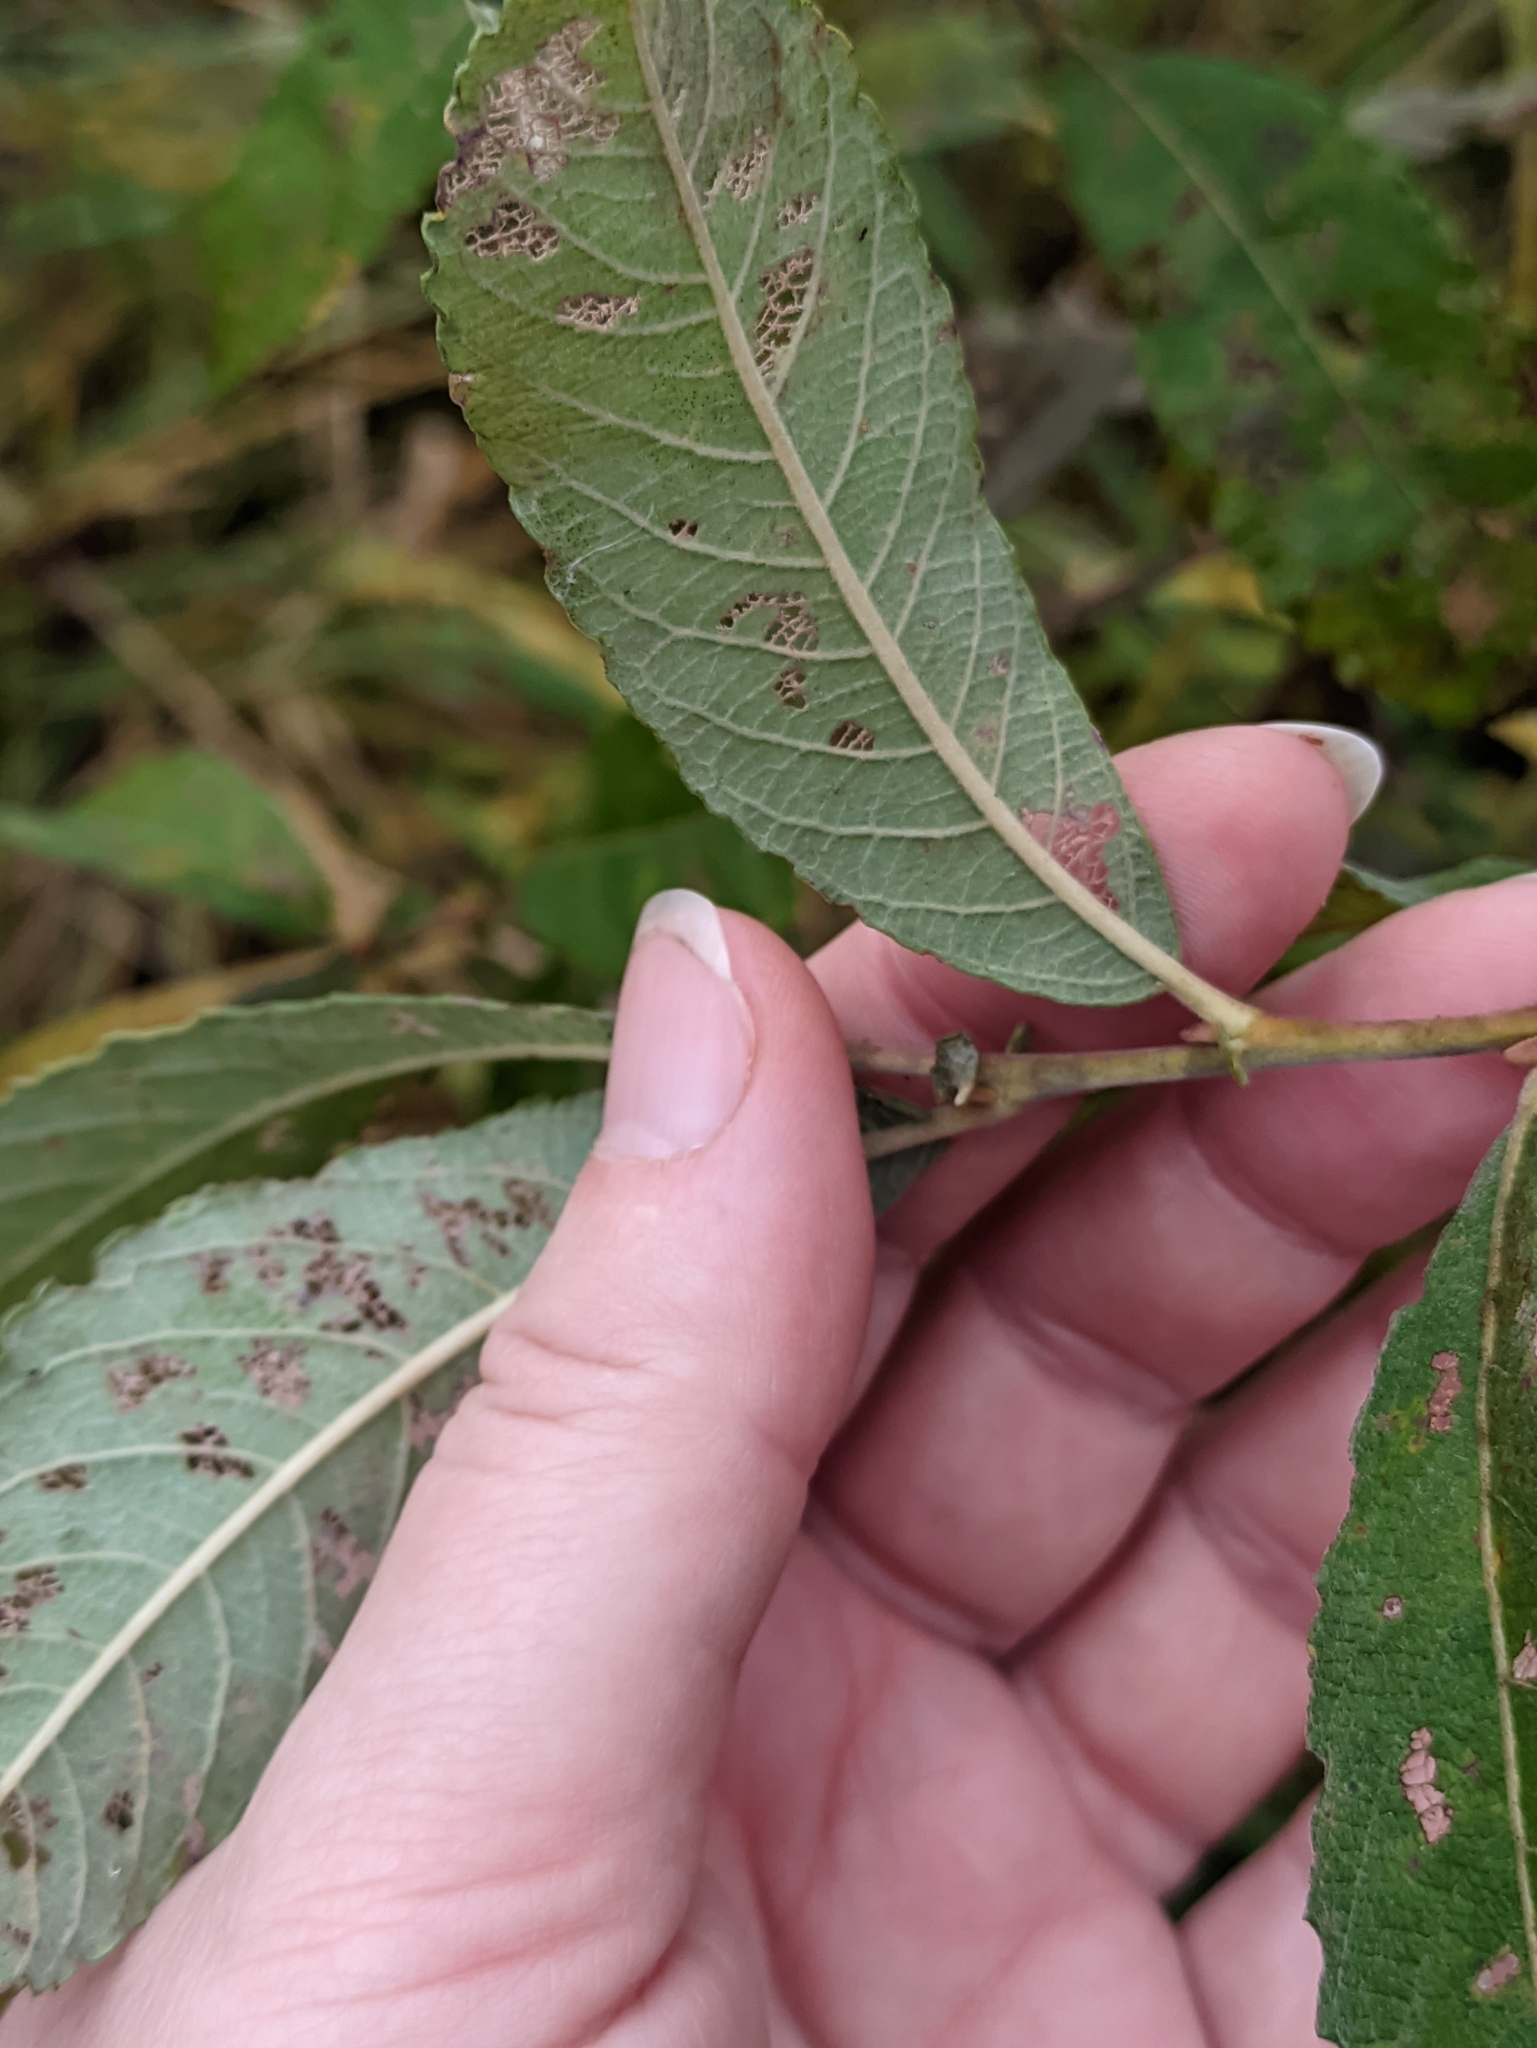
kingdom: Plantae
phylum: Tracheophyta
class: Magnoliopsida
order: Malpighiales
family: Salicaceae
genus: Salix
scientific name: Salix cinerea
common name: Common sallow
